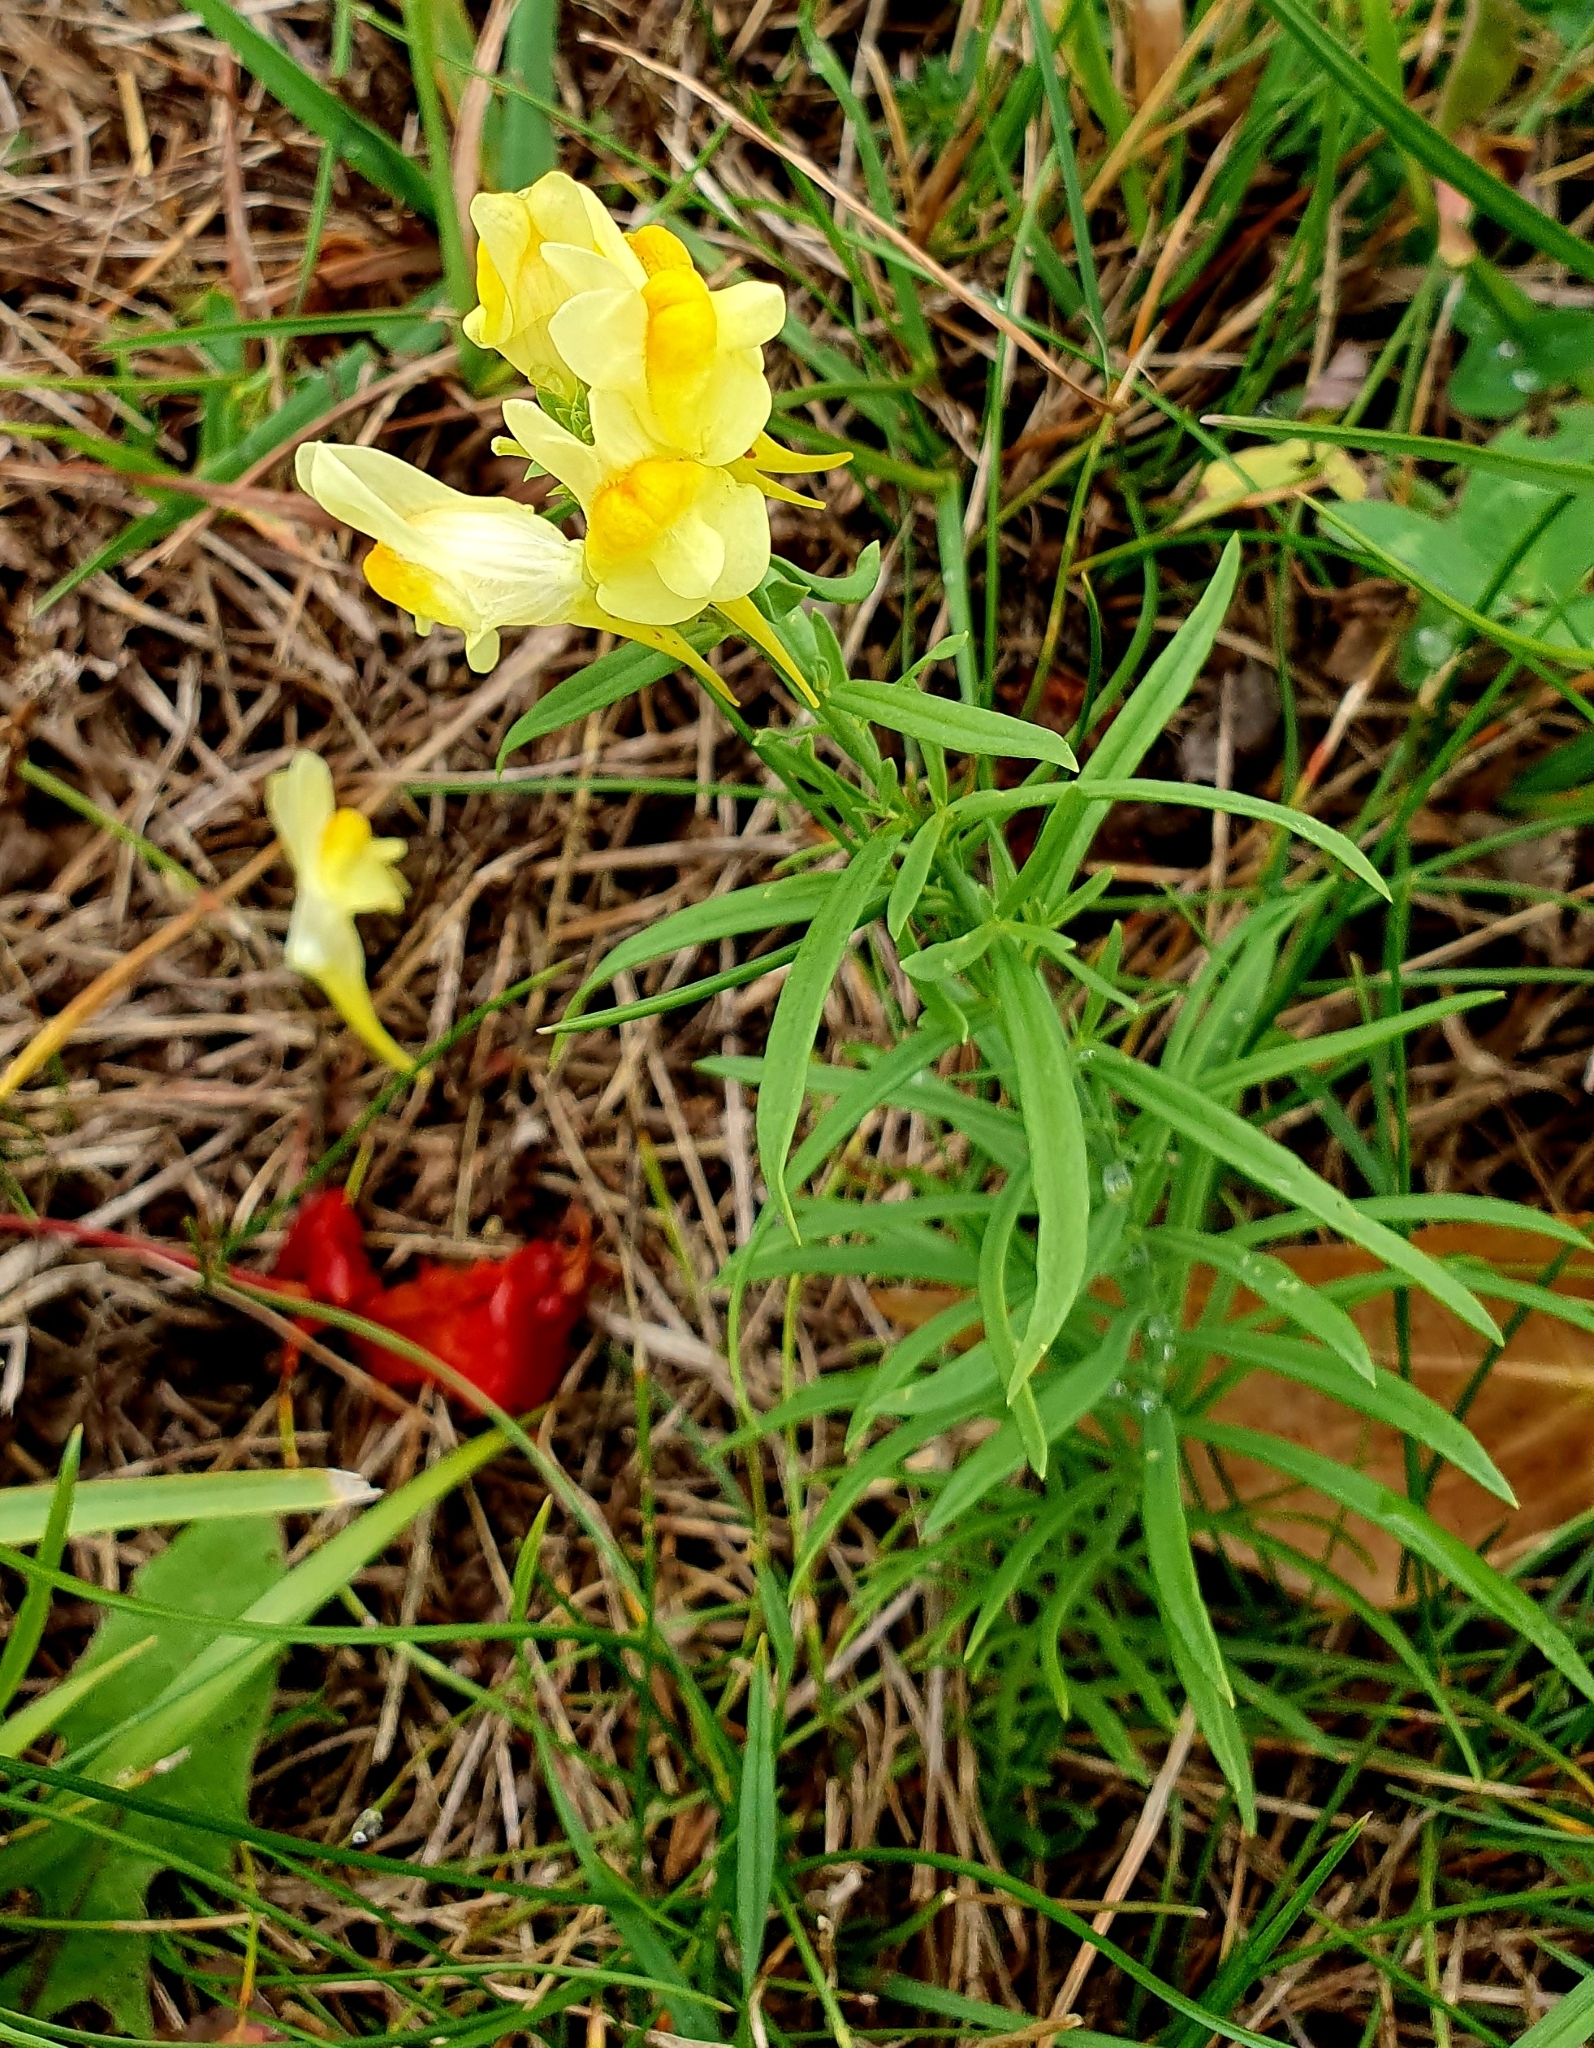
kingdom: Plantae
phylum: Tracheophyta
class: Magnoliopsida
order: Lamiales
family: Plantaginaceae
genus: Linaria
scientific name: Linaria vulgaris
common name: Butter and eggs
